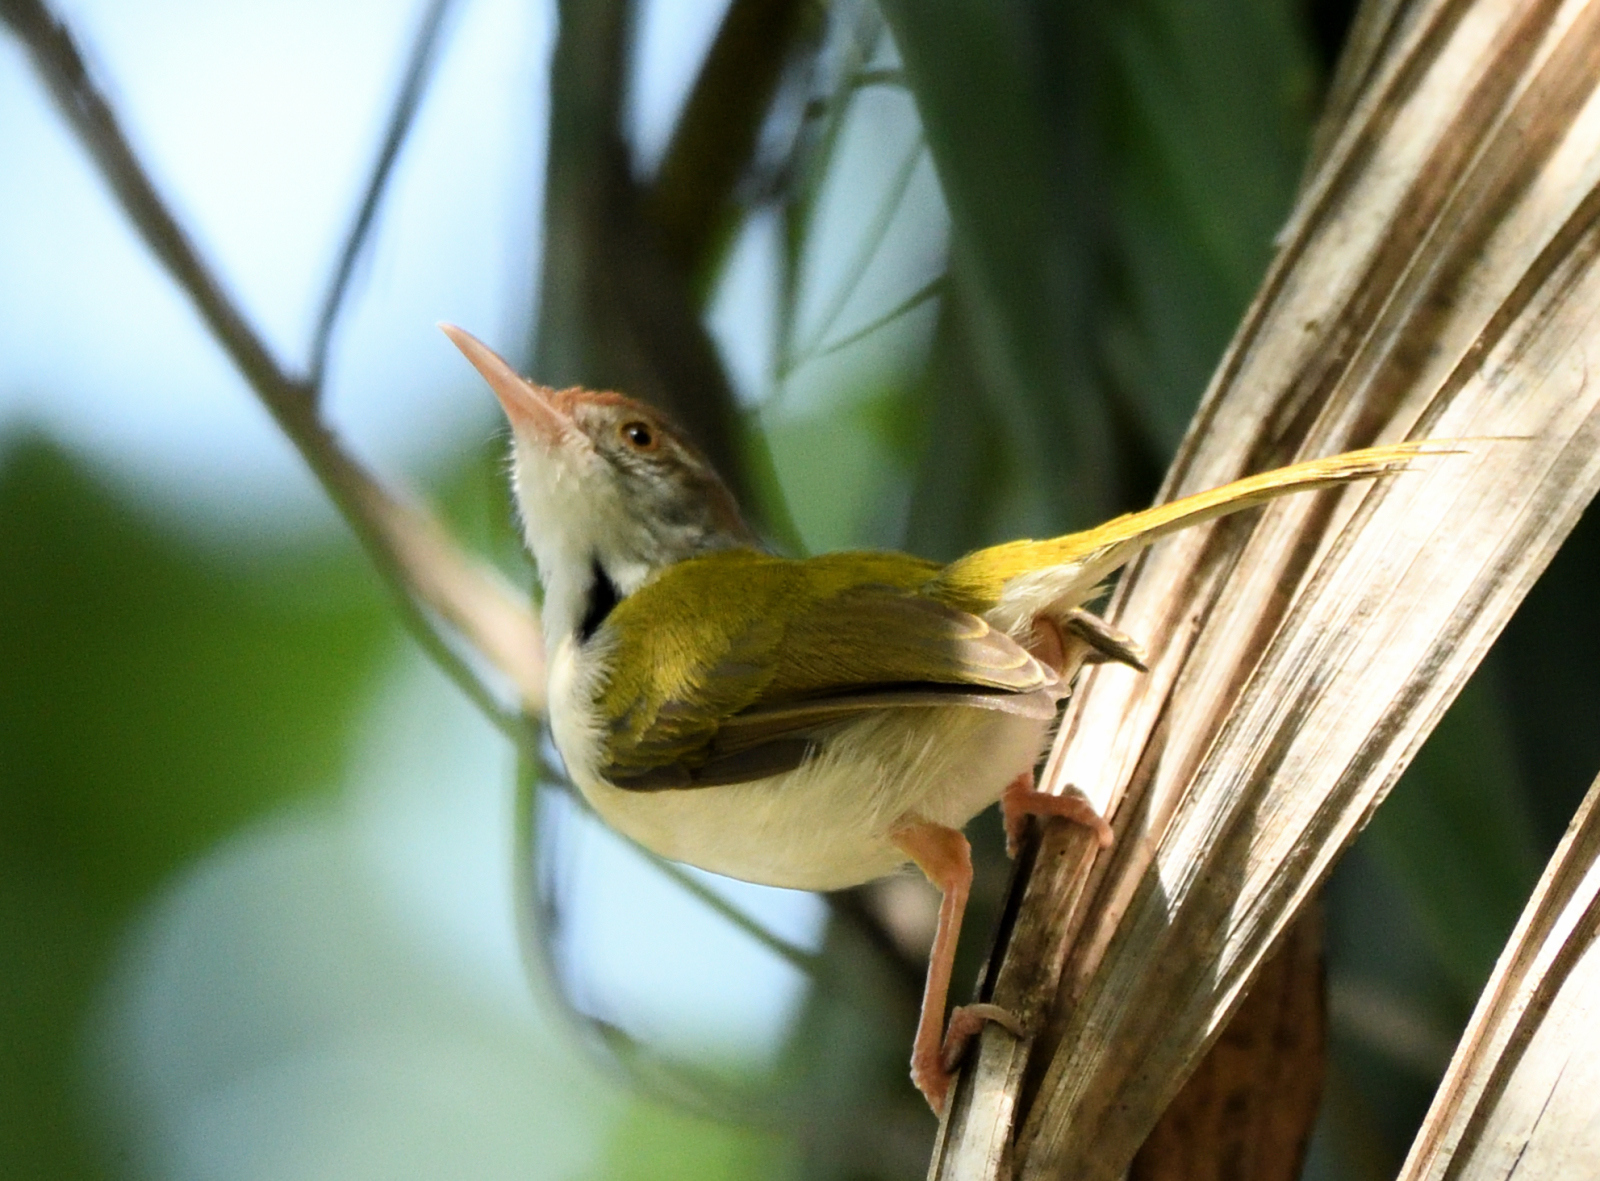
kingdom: Animalia
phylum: Chordata
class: Aves
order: Passeriformes
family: Cisticolidae
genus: Orthotomus
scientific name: Orthotomus sutorius
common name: Common tailorbird
